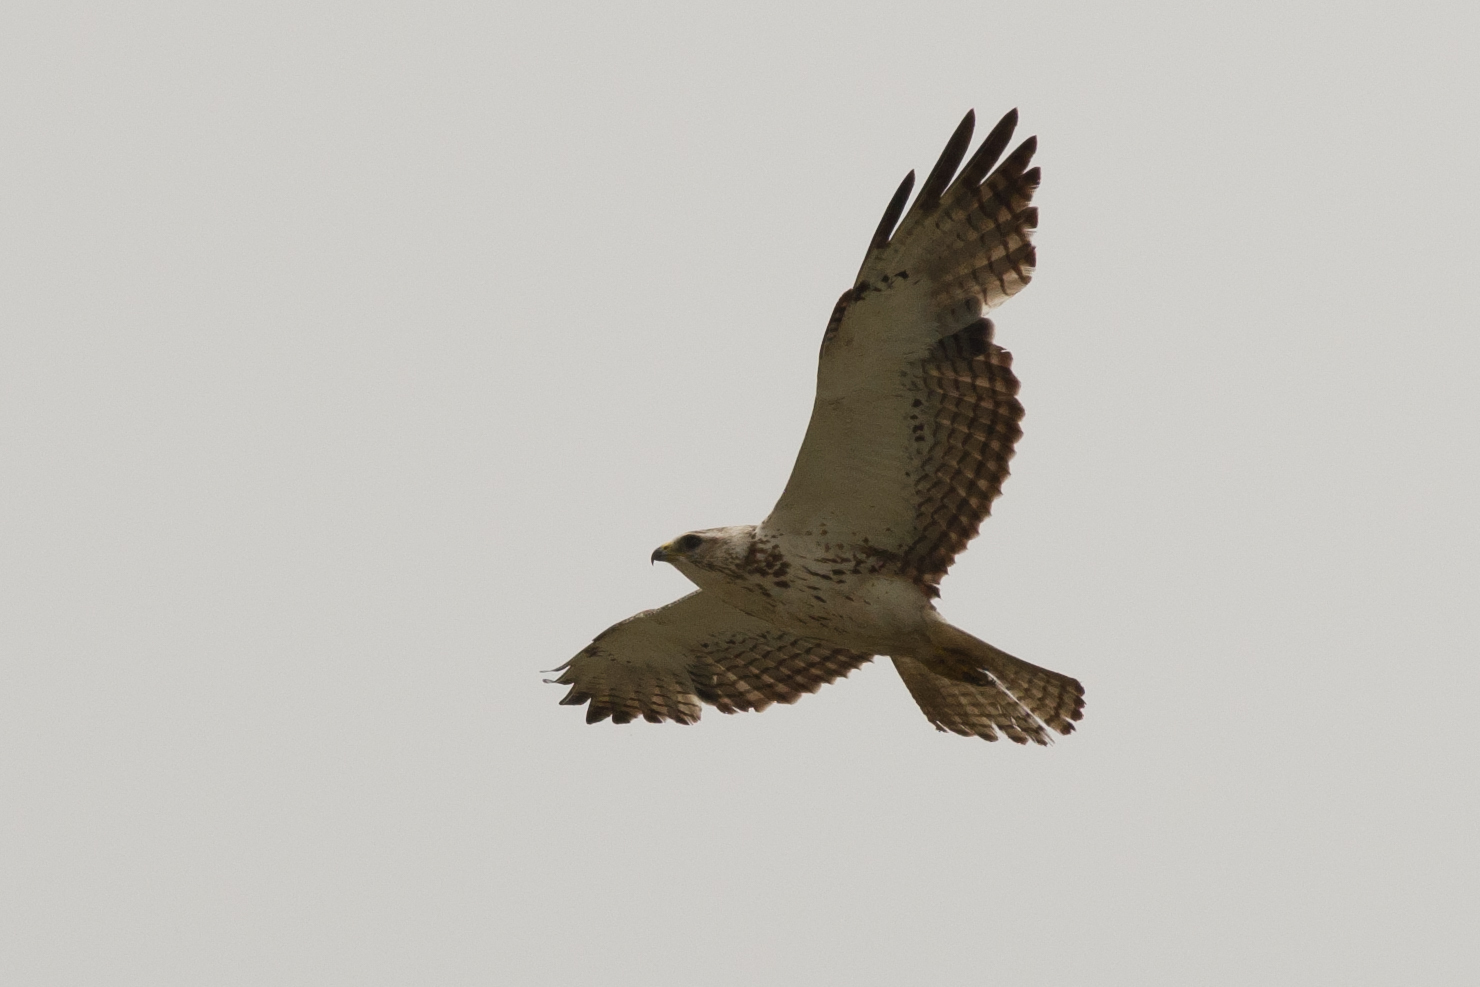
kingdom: Animalia
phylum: Chordata
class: Aves
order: Accipitriformes
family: Accipitridae
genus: Buteo
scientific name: Buteo swainsoni
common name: Swainson's hawk
